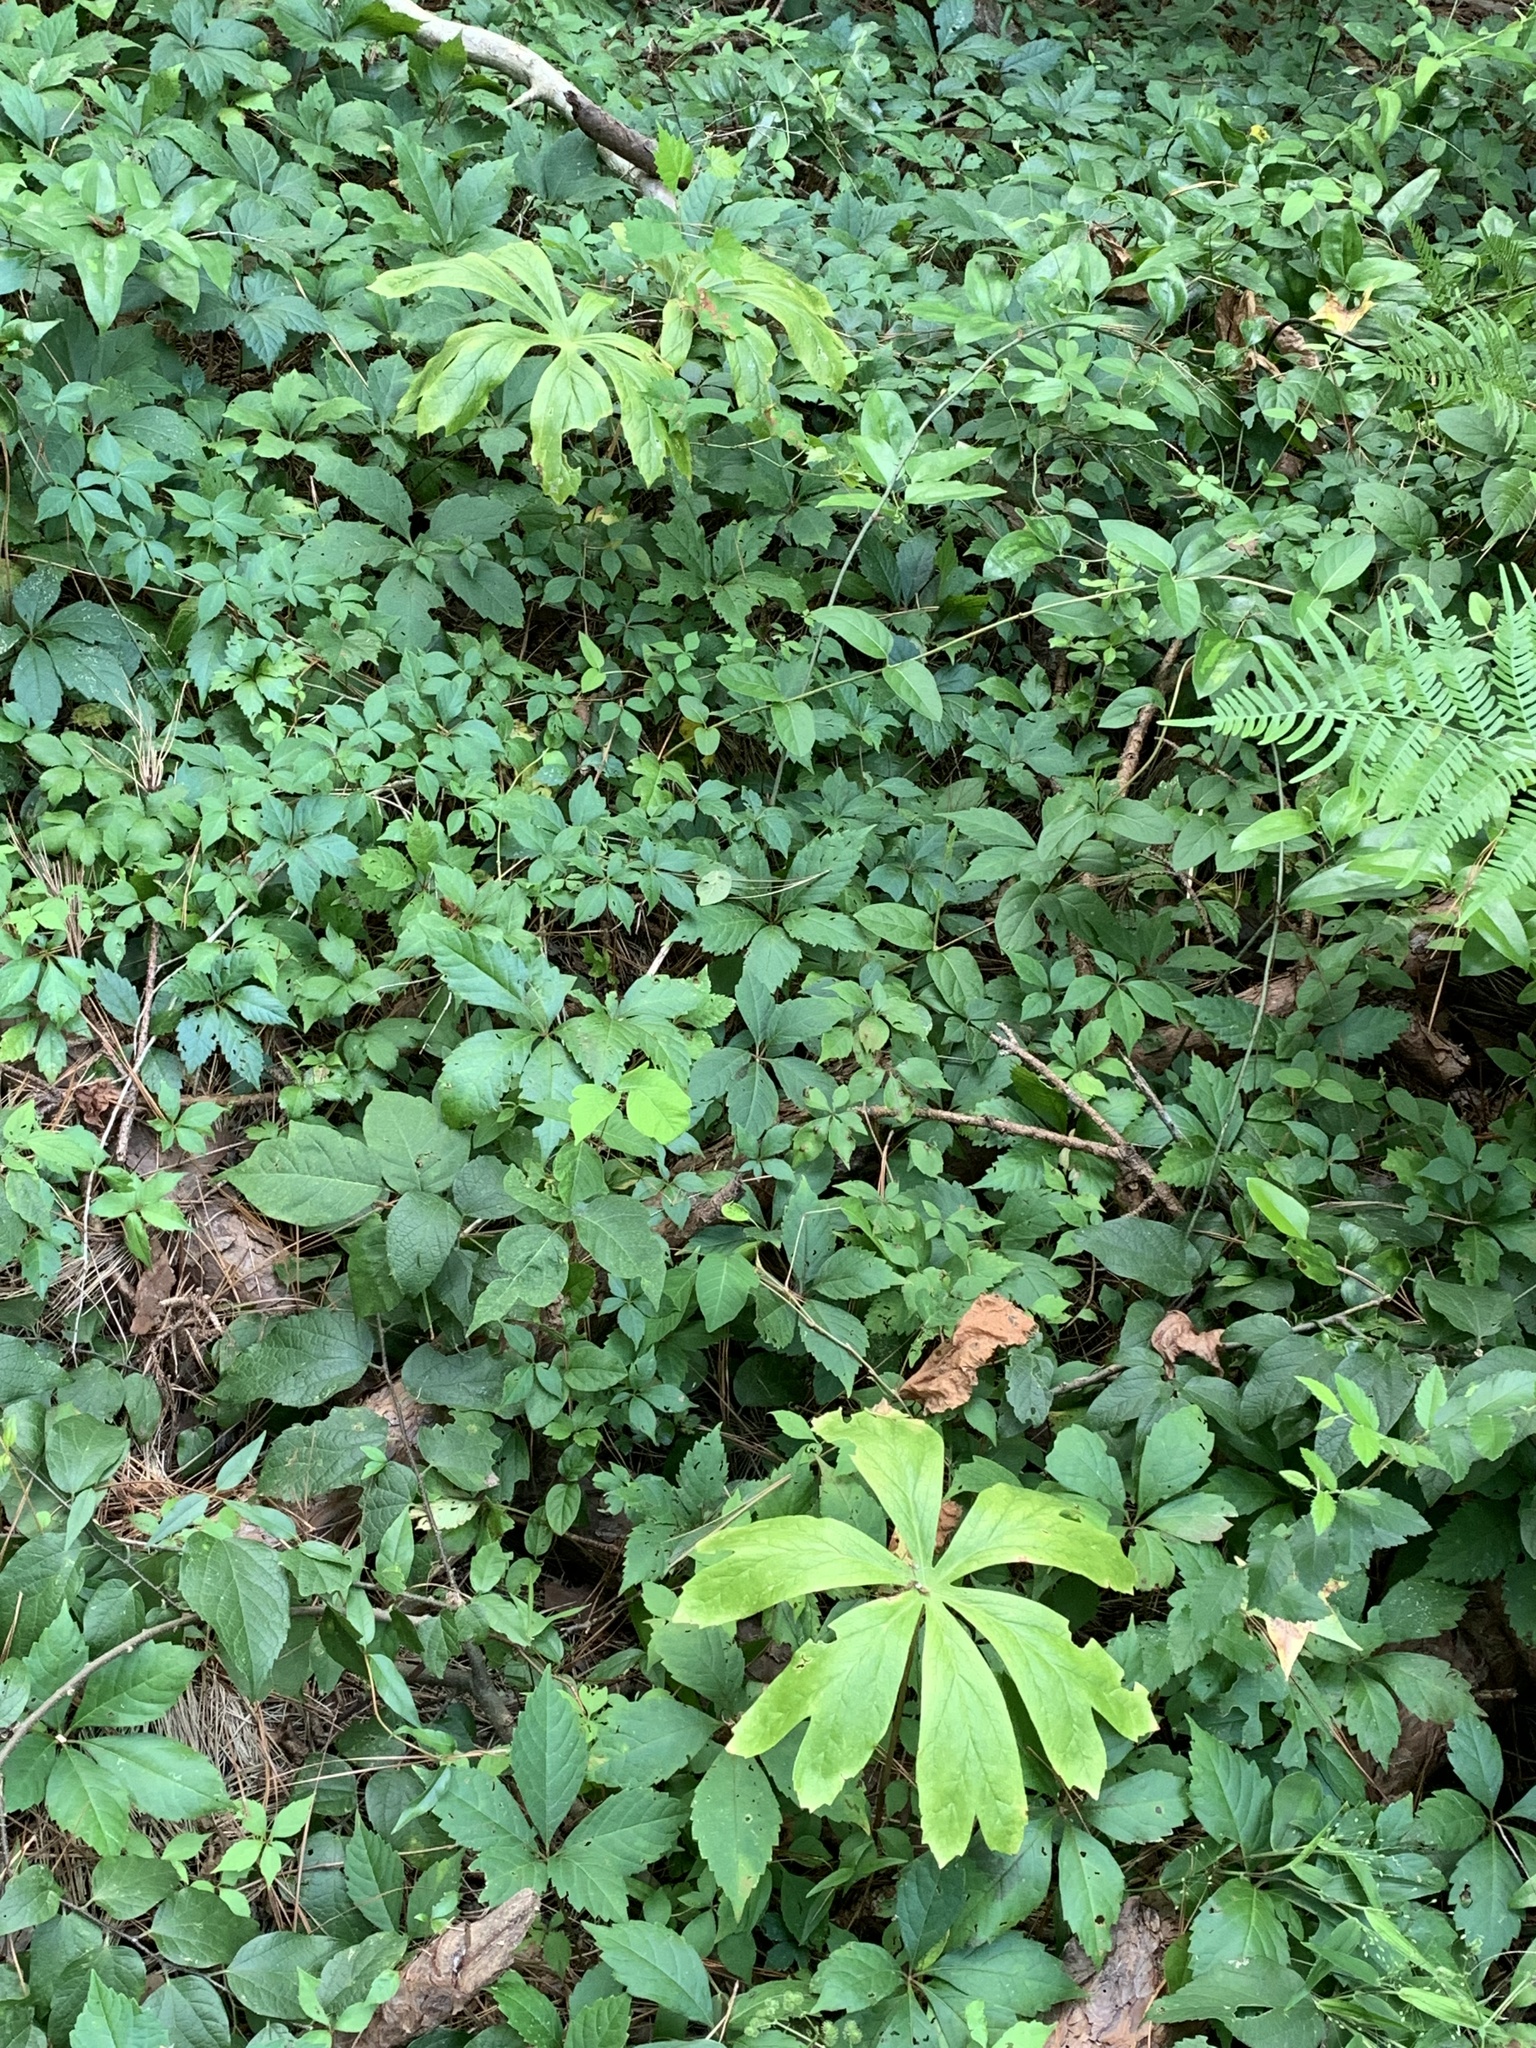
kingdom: Plantae
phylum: Tracheophyta
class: Magnoliopsida
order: Ranunculales
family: Berberidaceae
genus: Podophyllum
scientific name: Podophyllum peltatum
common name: Wild mandrake
